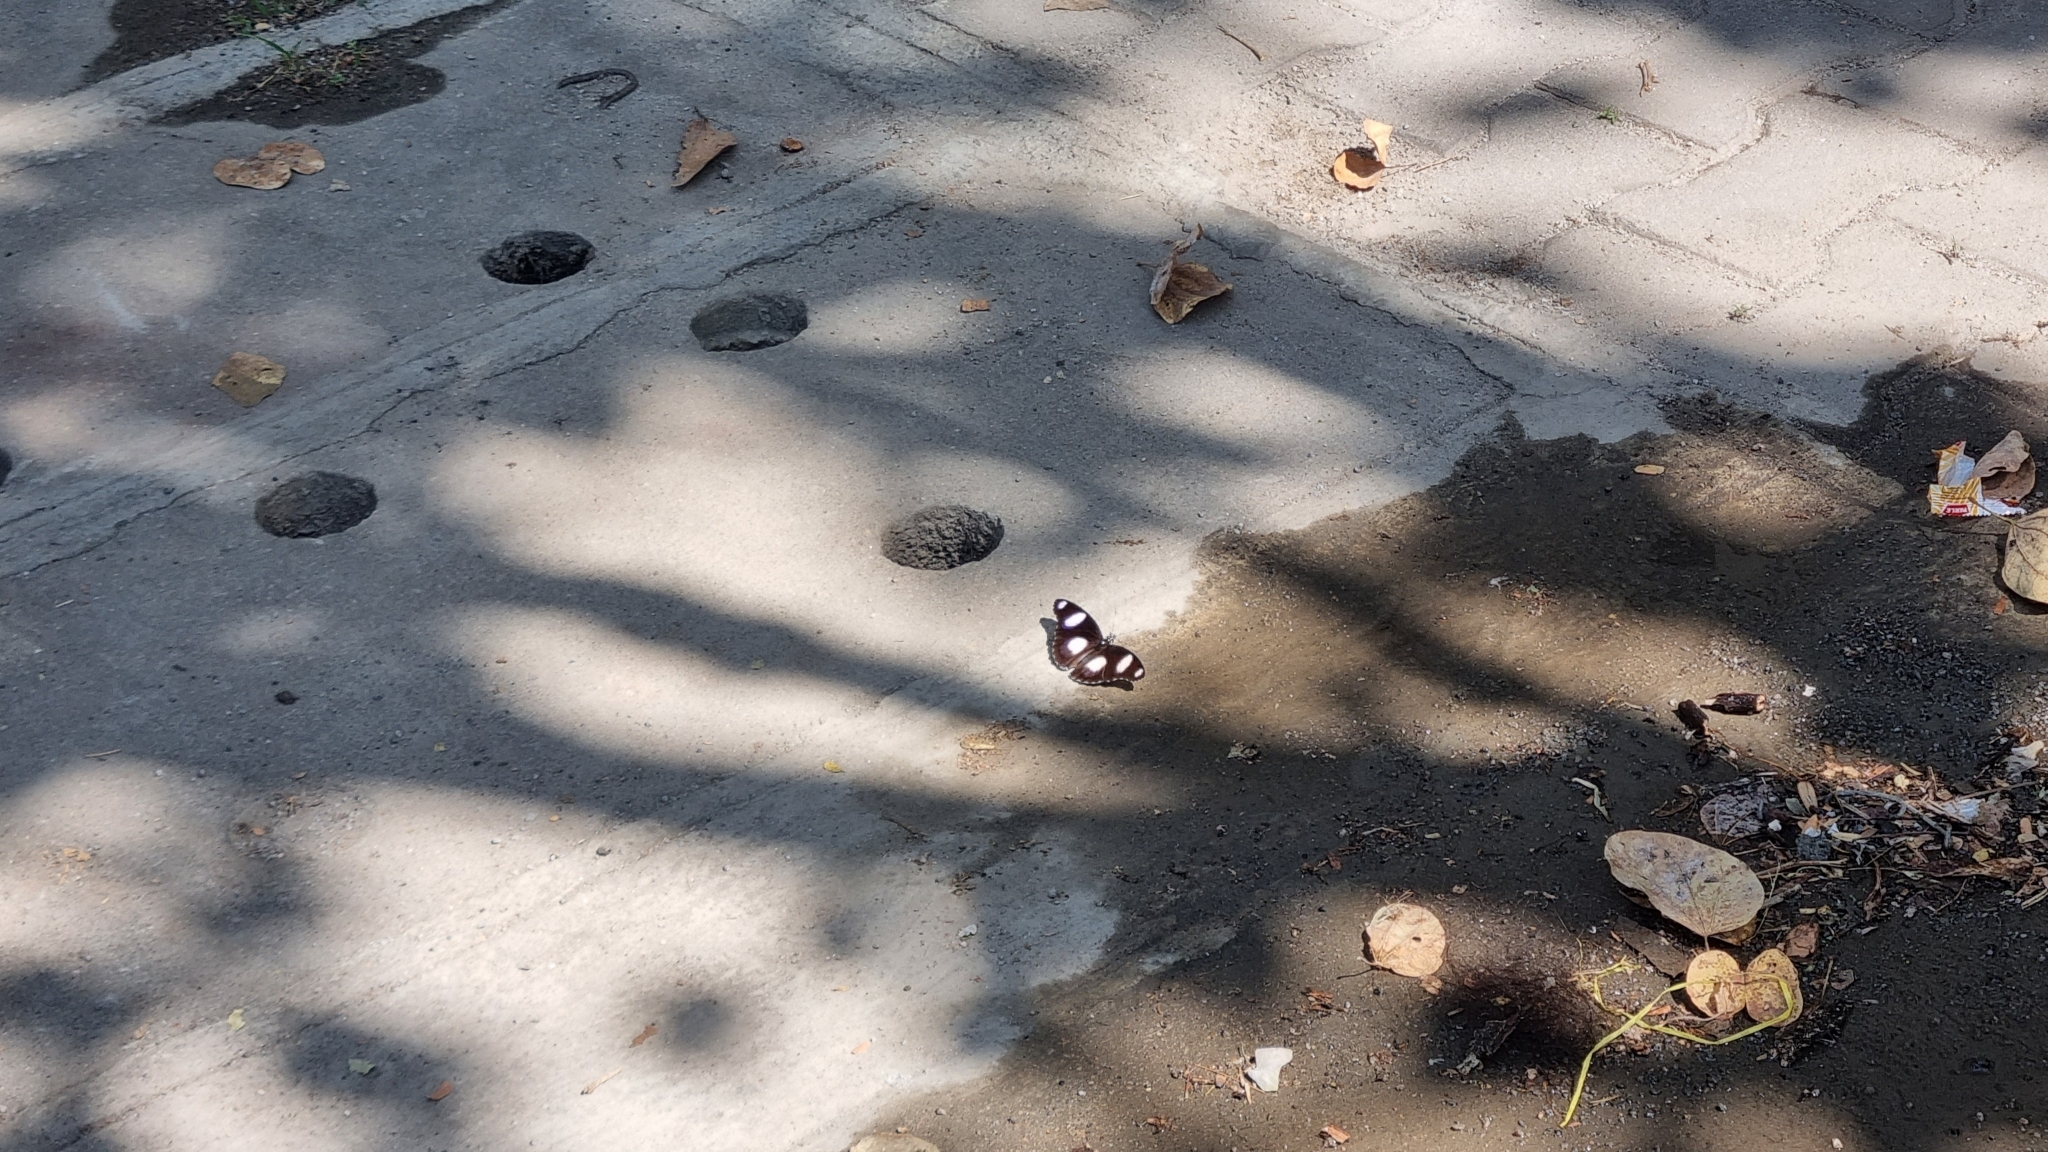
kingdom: Animalia
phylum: Arthropoda
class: Insecta
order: Lepidoptera
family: Nymphalidae
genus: Hypolimnas
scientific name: Hypolimnas misippus
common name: False plain tiger
